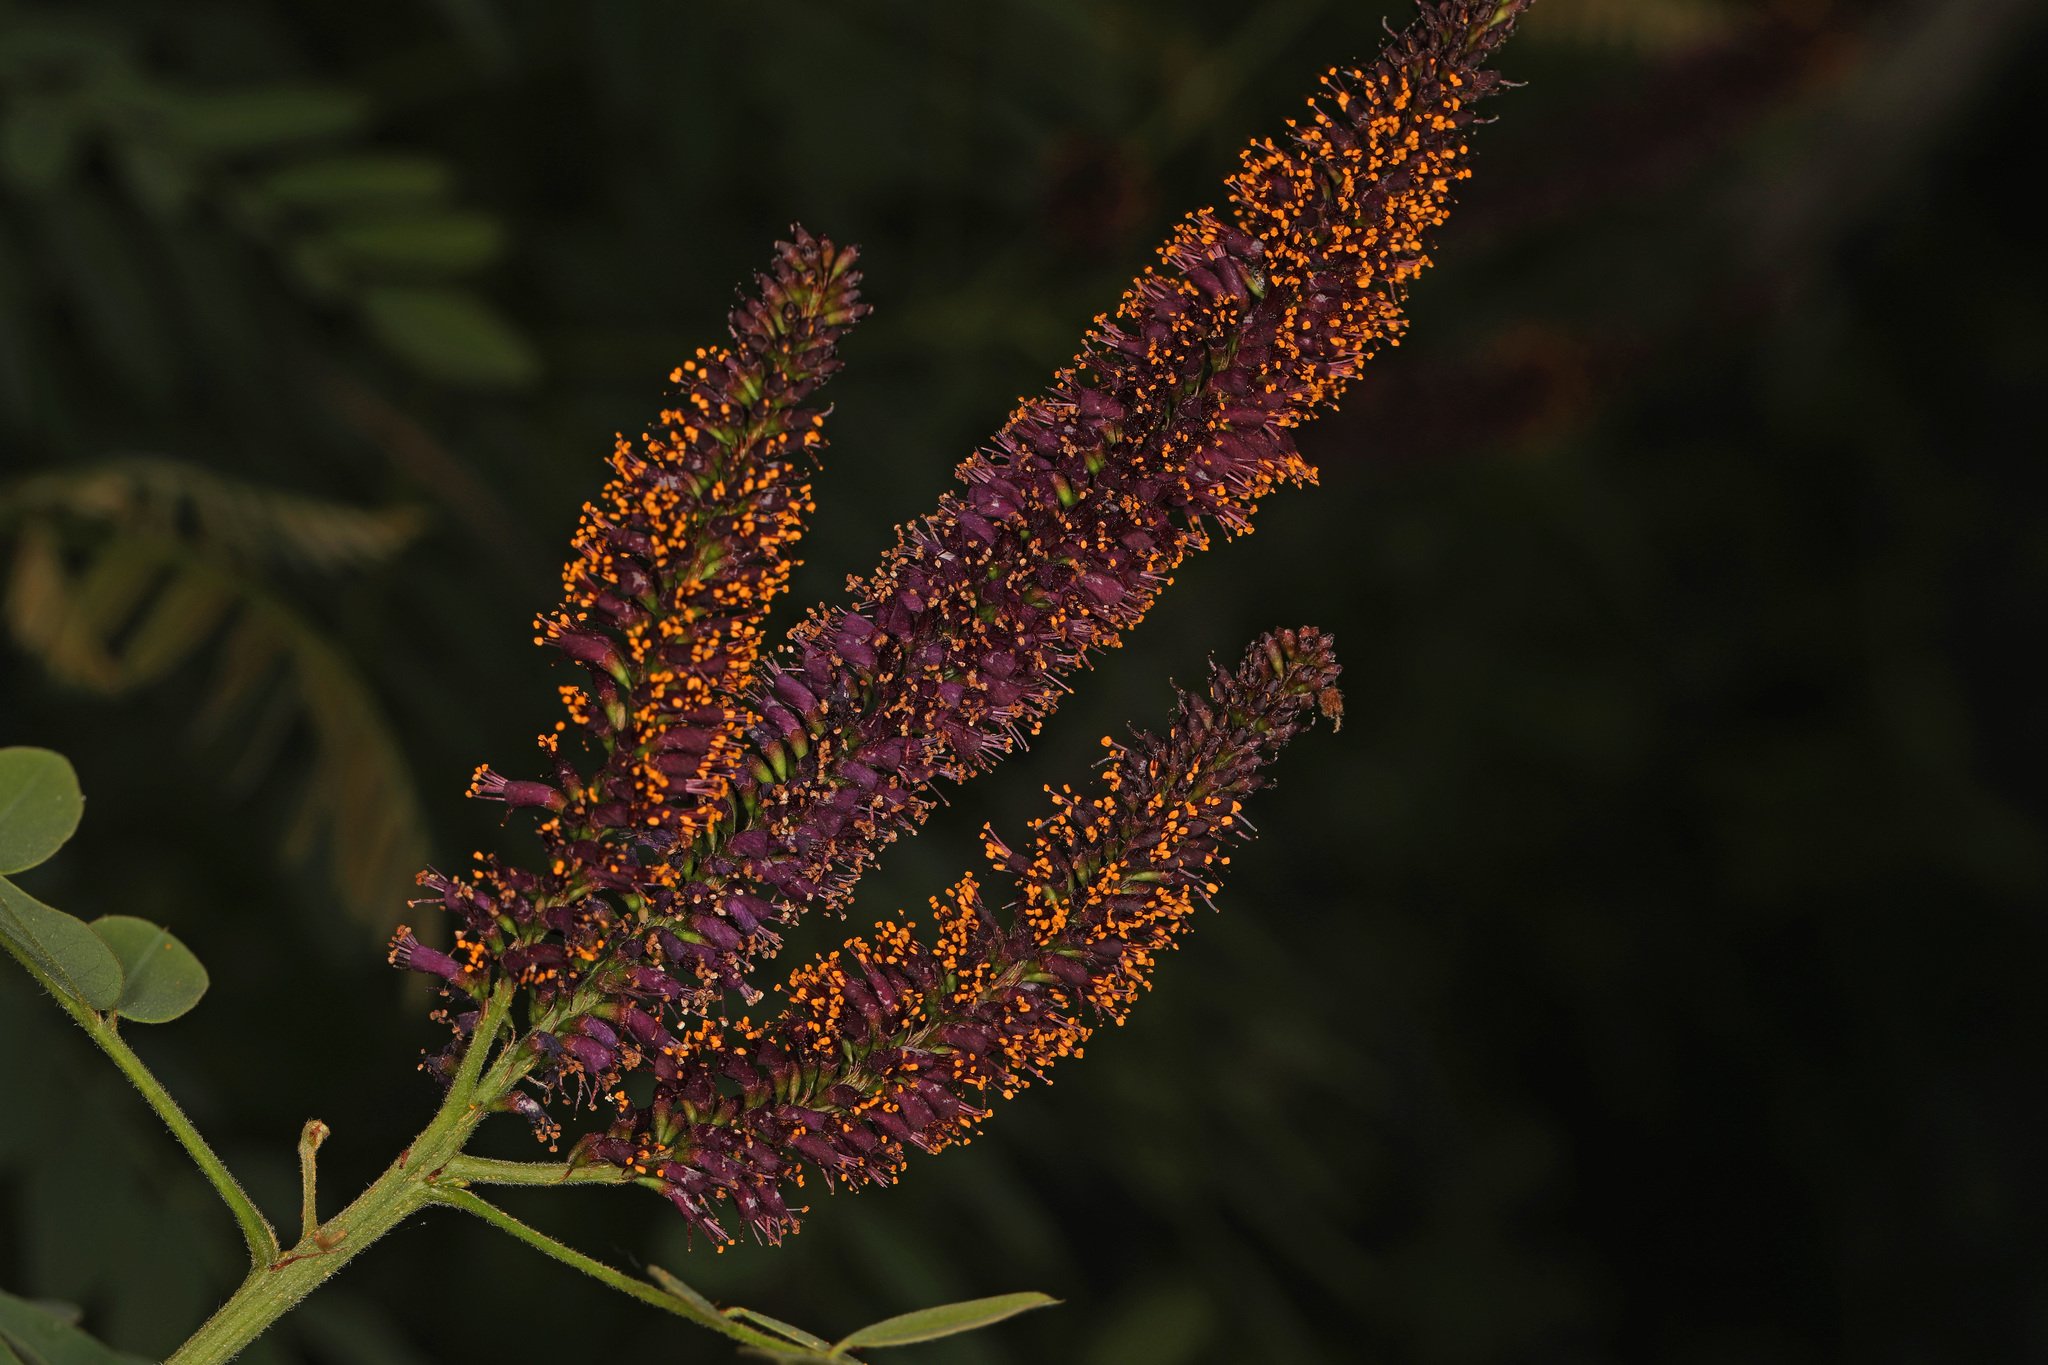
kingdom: Plantae
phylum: Tracheophyta
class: Magnoliopsida
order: Fabales
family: Fabaceae
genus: Amorpha
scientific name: Amorpha fruticosa
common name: False indigo
